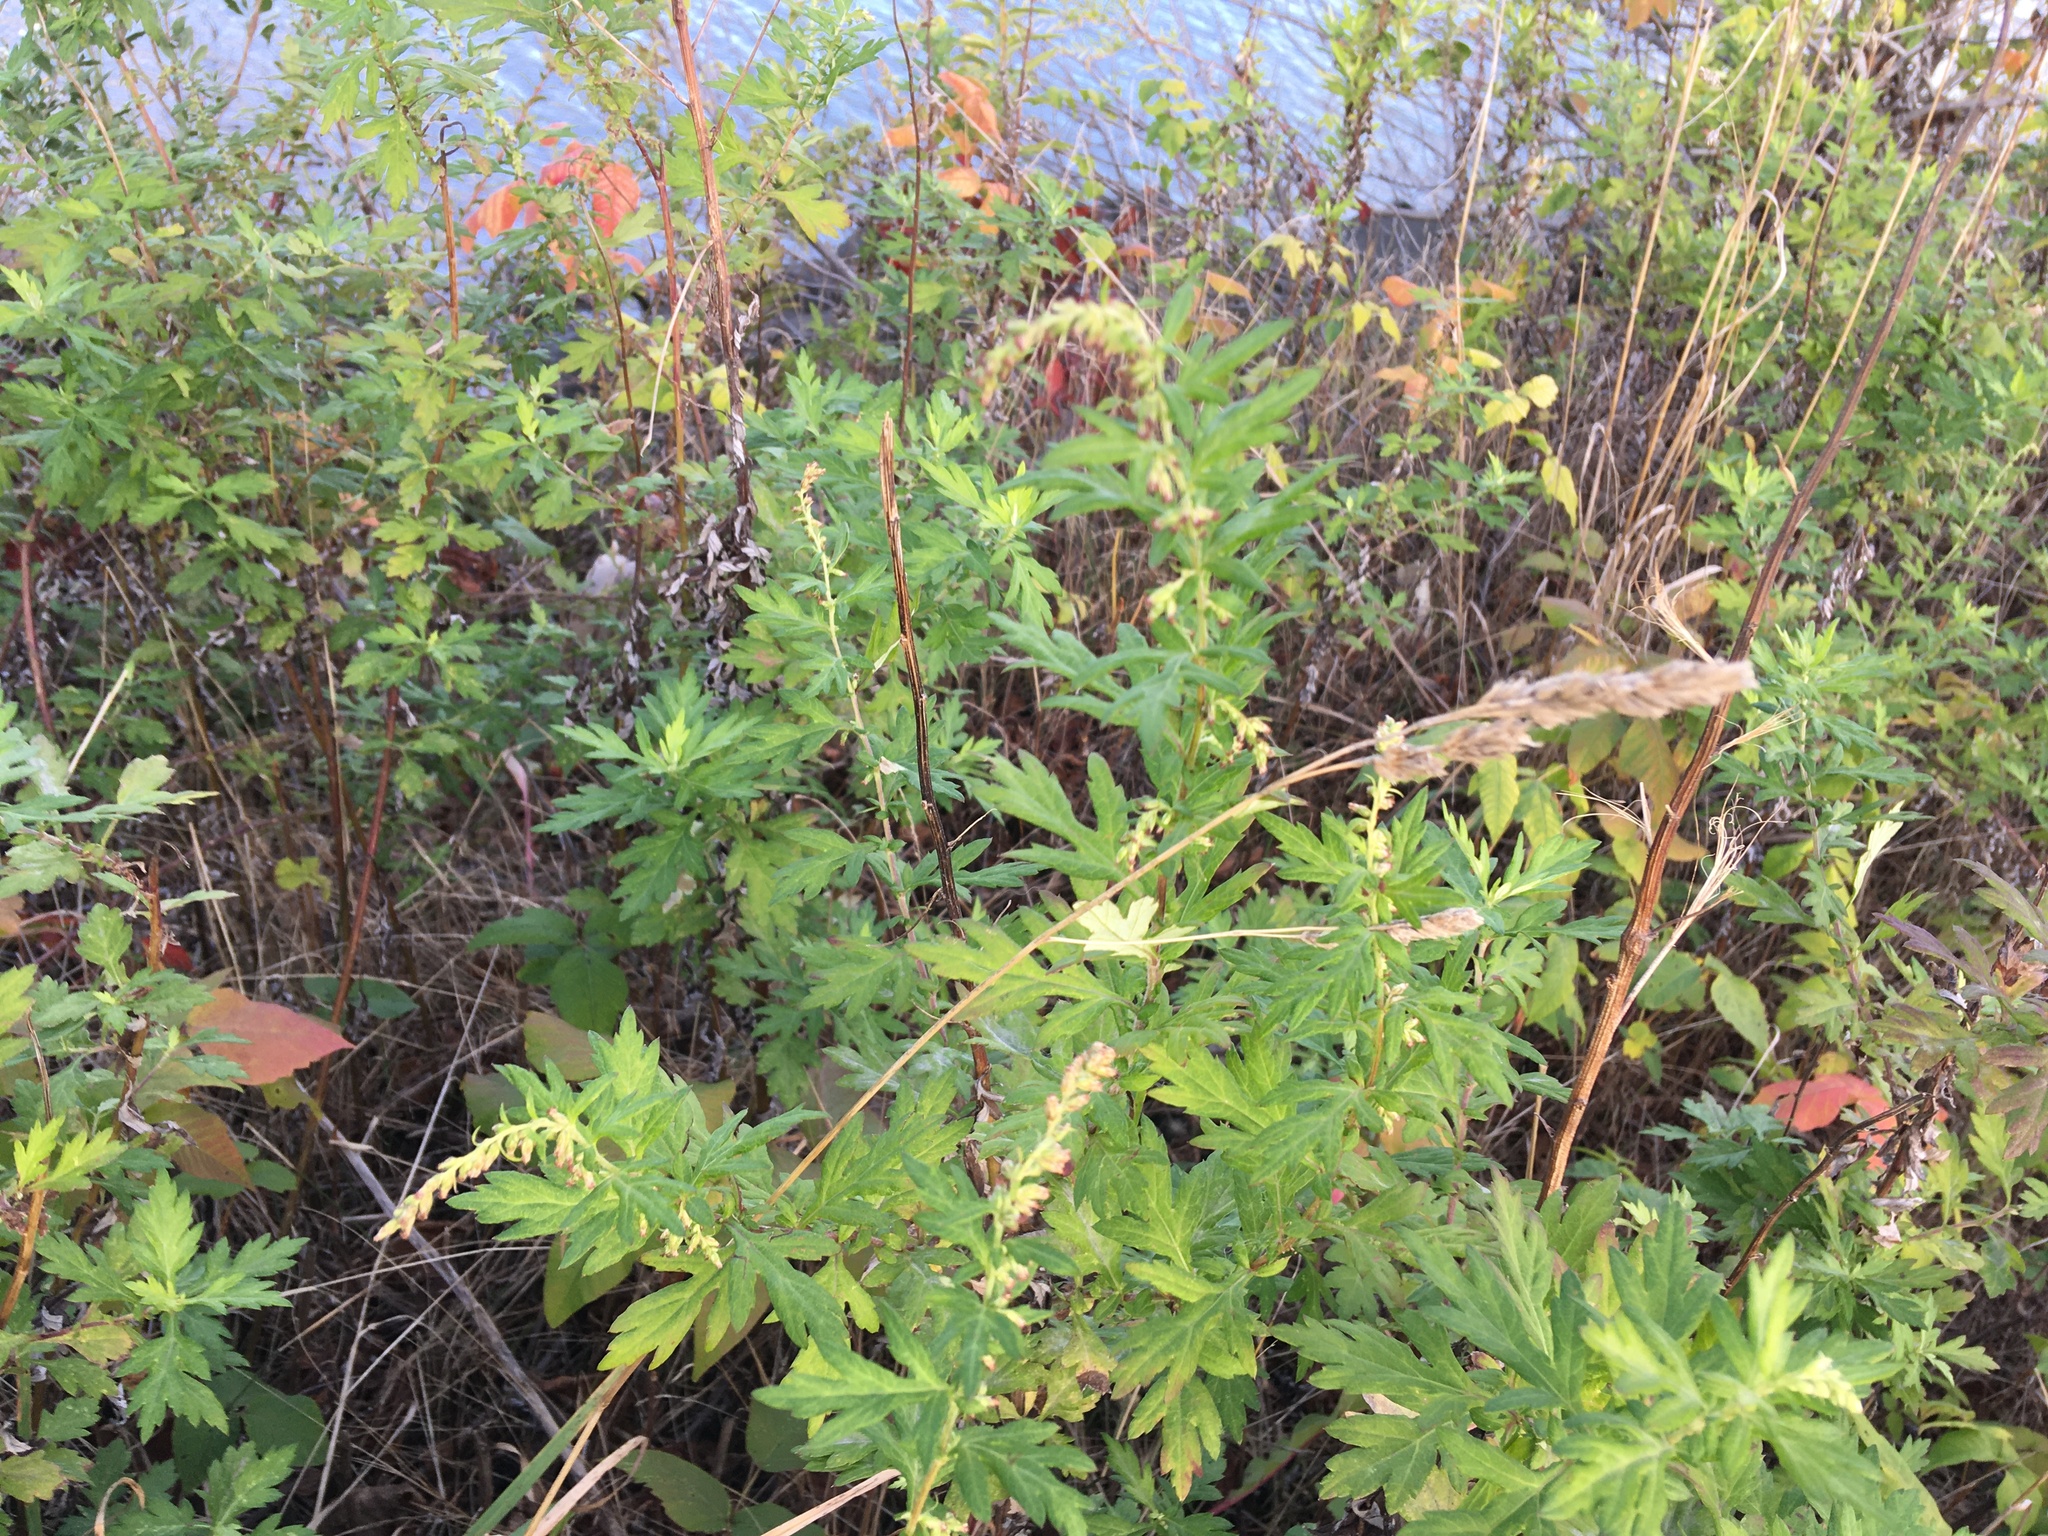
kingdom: Plantae
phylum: Tracheophyta
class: Magnoliopsida
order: Asterales
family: Asteraceae
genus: Artemisia
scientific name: Artemisia vulgaris
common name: Mugwort
